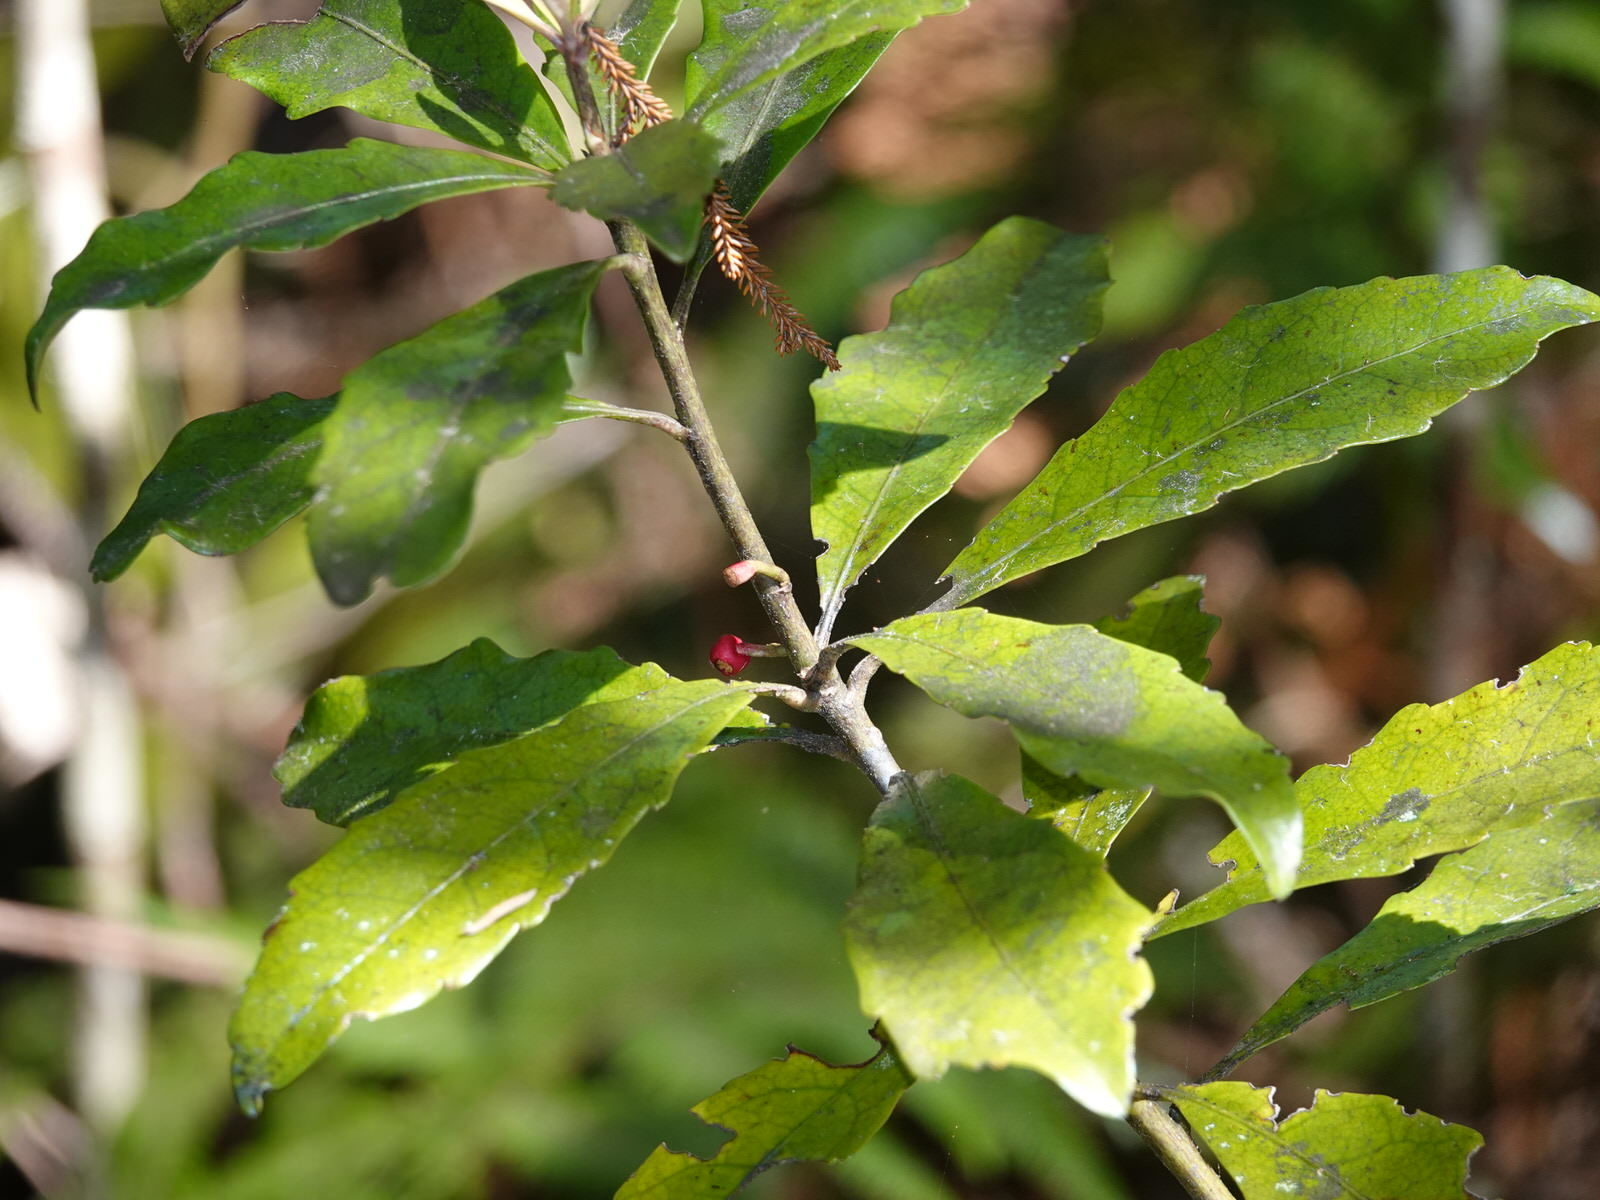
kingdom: Plantae
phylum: Tracheophyta
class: Magnoliopsida
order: Asterales
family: Alseuosmiaceae
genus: Alseuosmia
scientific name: Alseuosmia macrophylla
